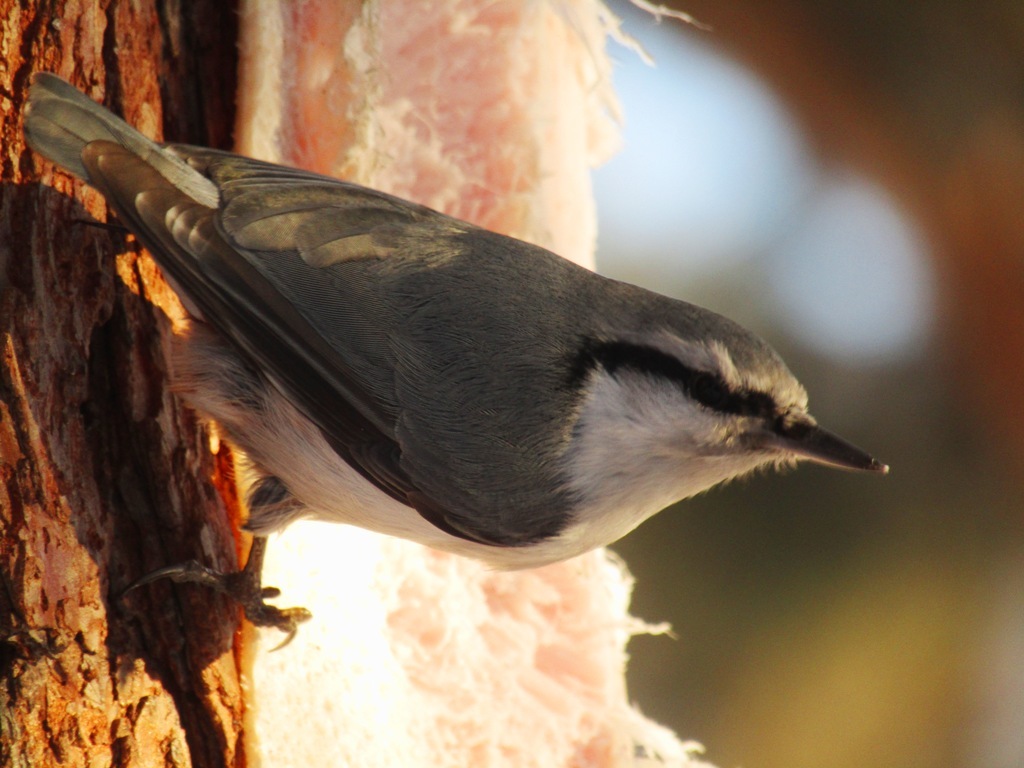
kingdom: Animalia
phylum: Chordata
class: Aves
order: Passeriformes
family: Sittidae
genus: Sitta
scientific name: Sitta europaea
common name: Eurasian nuthatch
